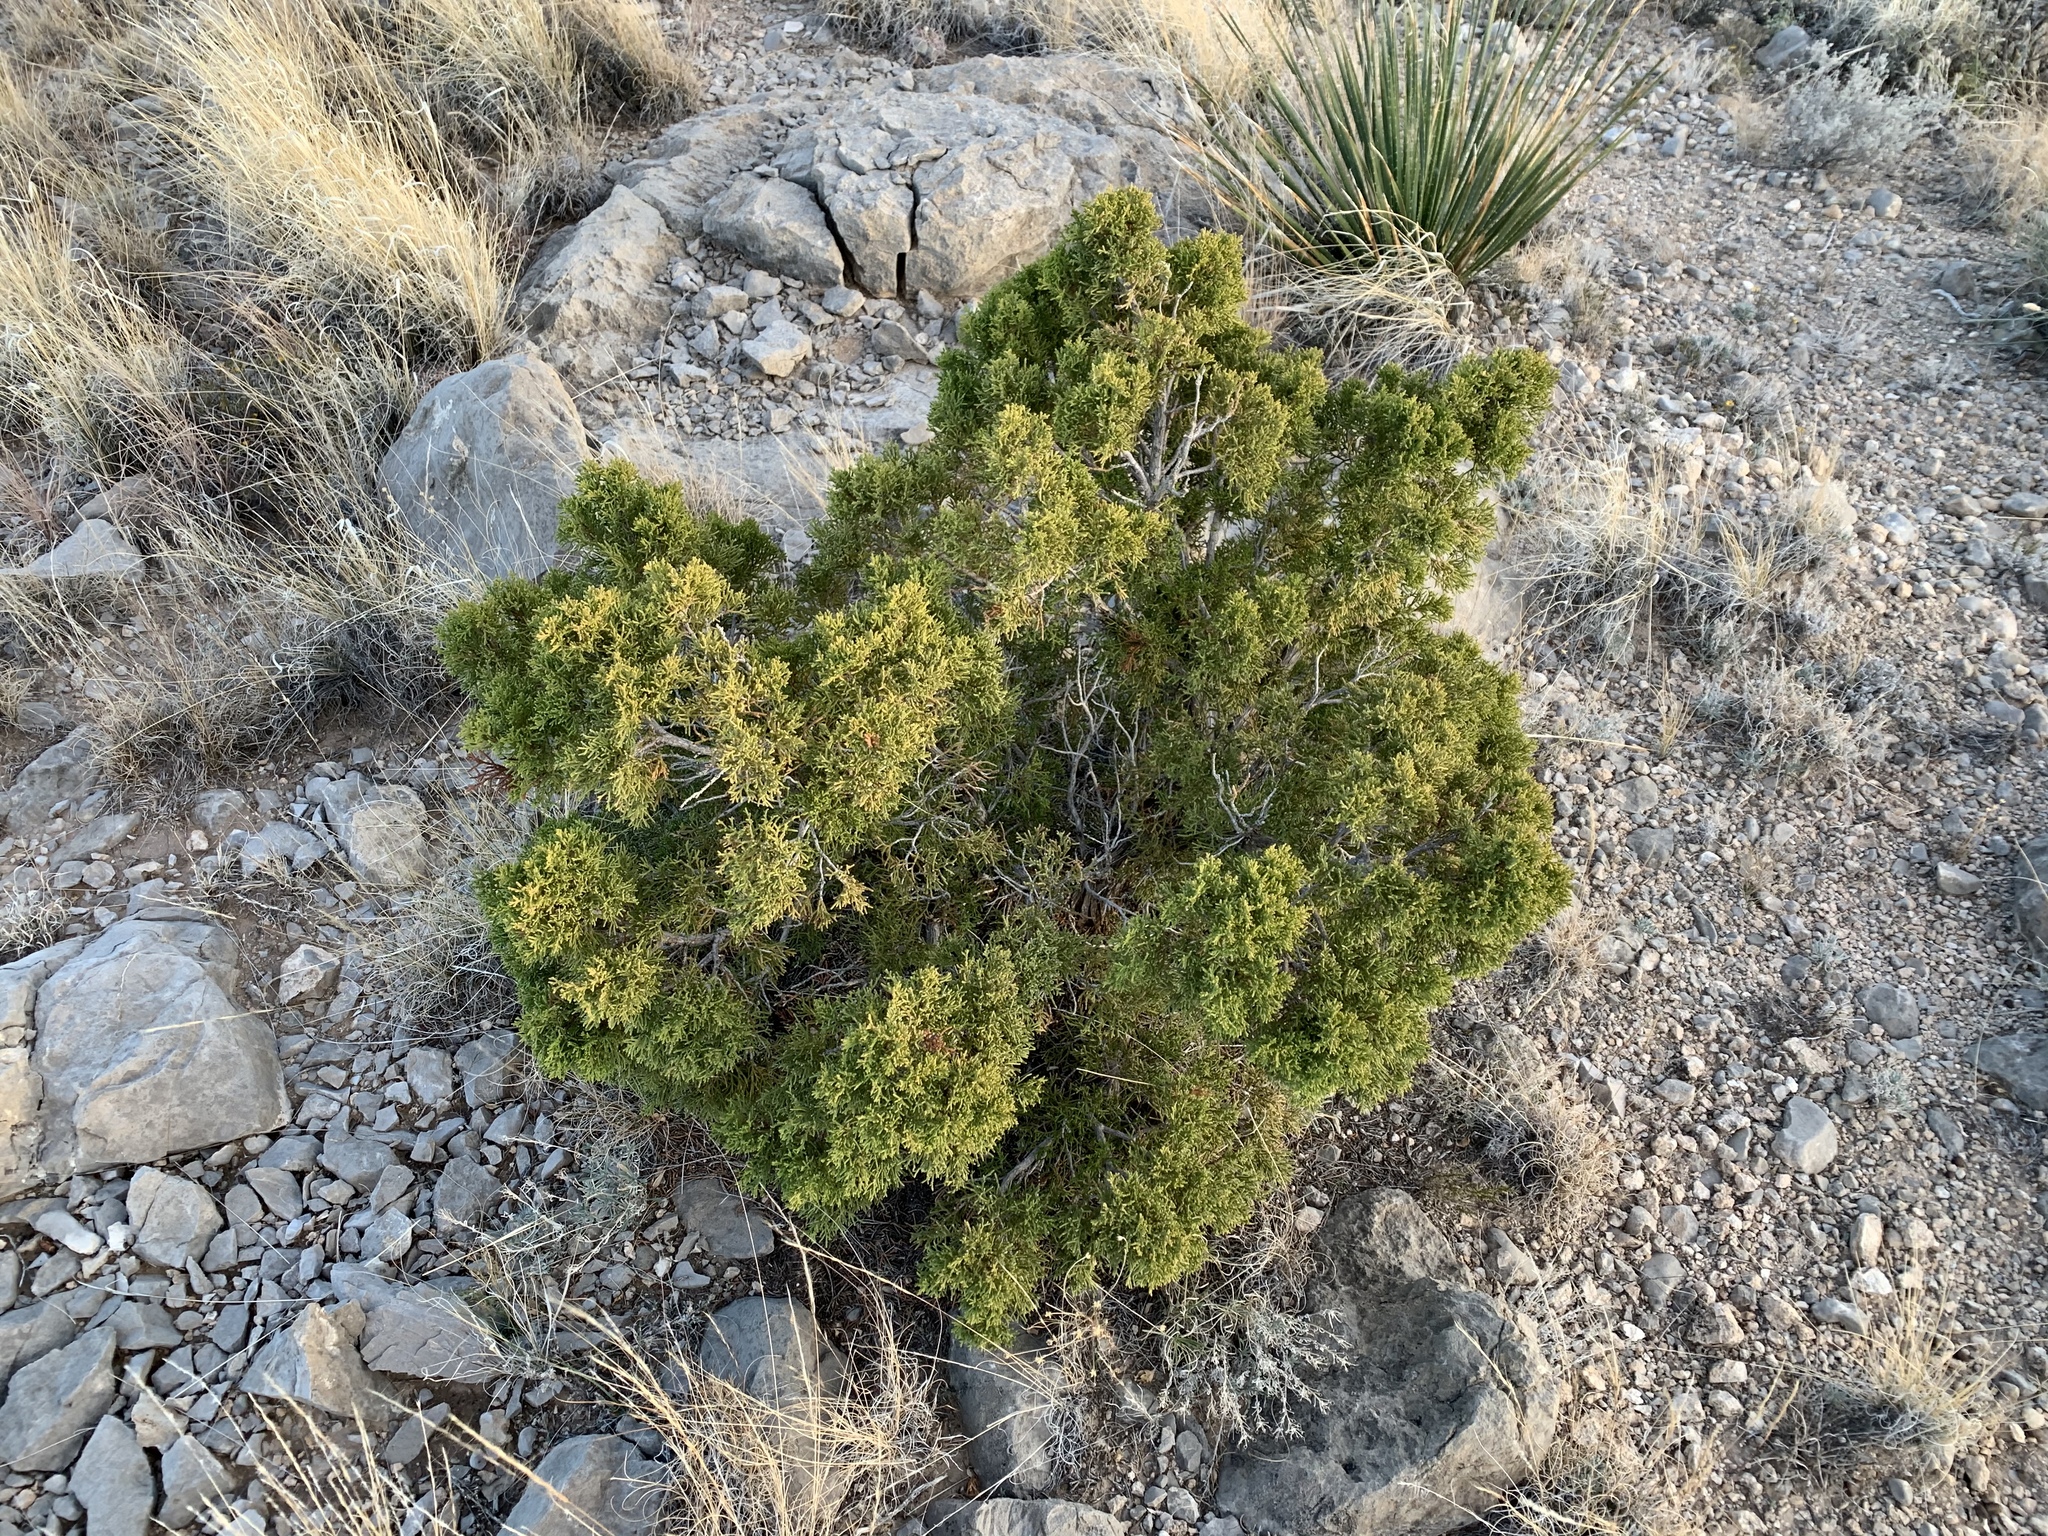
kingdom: Plantae
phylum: Tracheophyta
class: Pinopsida
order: Pinales
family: Cupressaceae
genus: Juniperus
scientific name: Juniperus monosperma
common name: One-seed juniper
